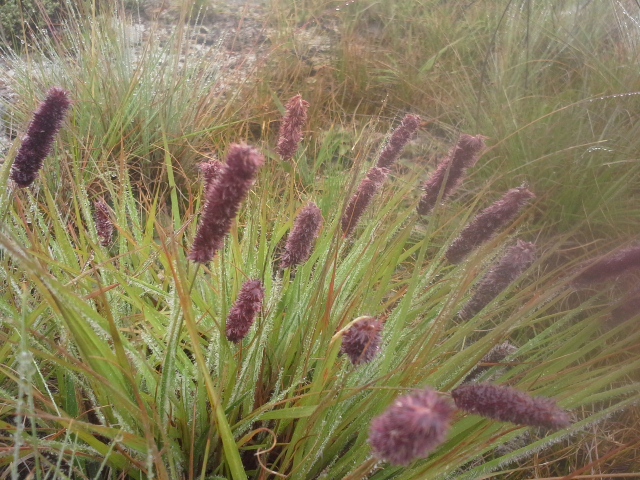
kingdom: Plantae
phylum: Tracheophyta
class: Liliopsida
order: Poales
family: Poaceae
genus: Stiburus
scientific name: Stiburus alopecuroides
